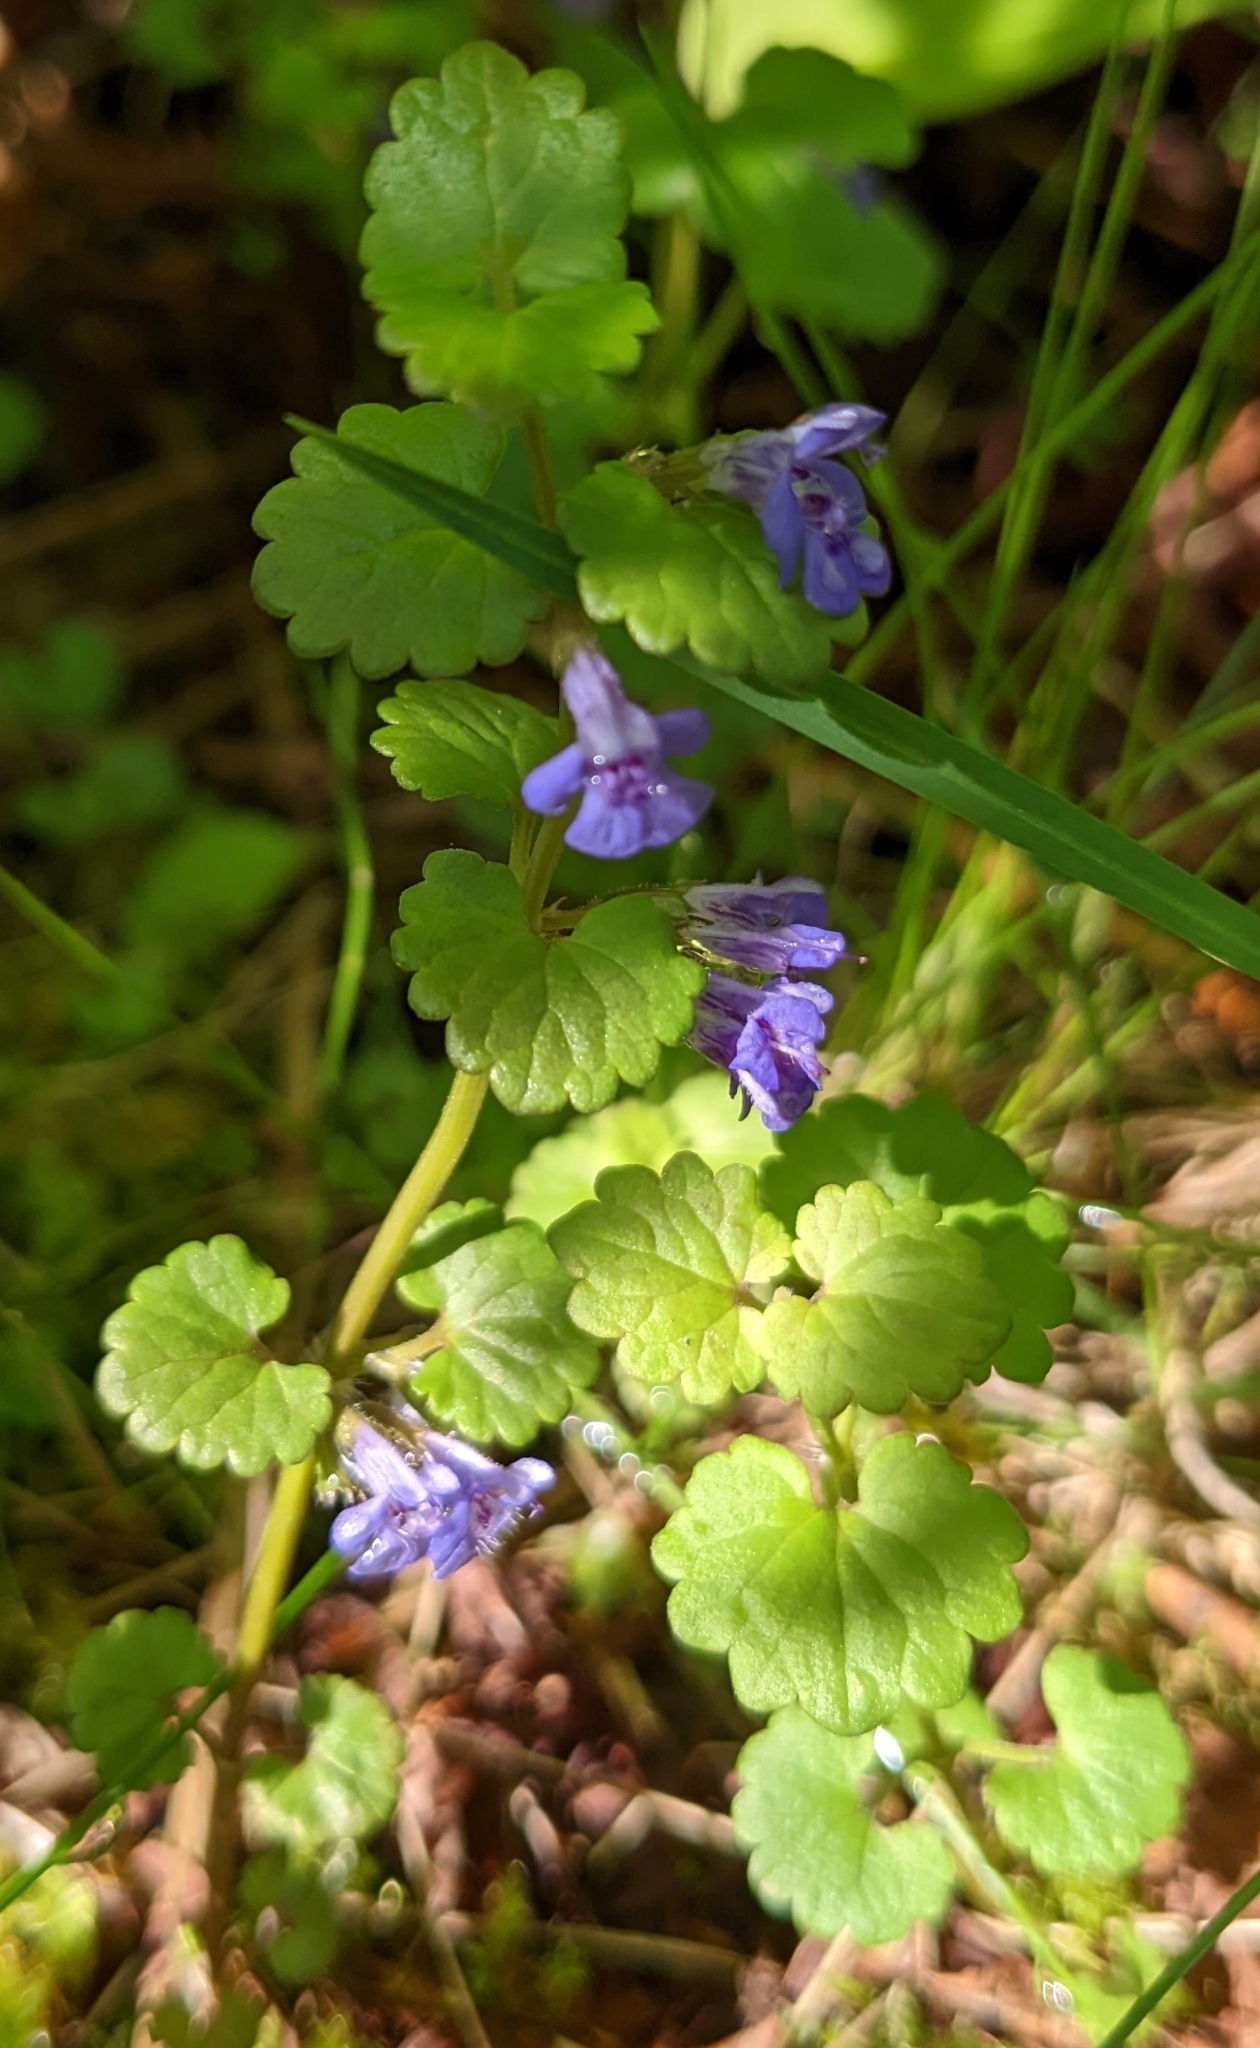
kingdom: Plantae
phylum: Tracheophyta
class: Magnoliopsida
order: Lamiales
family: Lamiaceae
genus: Glechoma
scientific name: Glechoma hederacea
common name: Ground ivy
